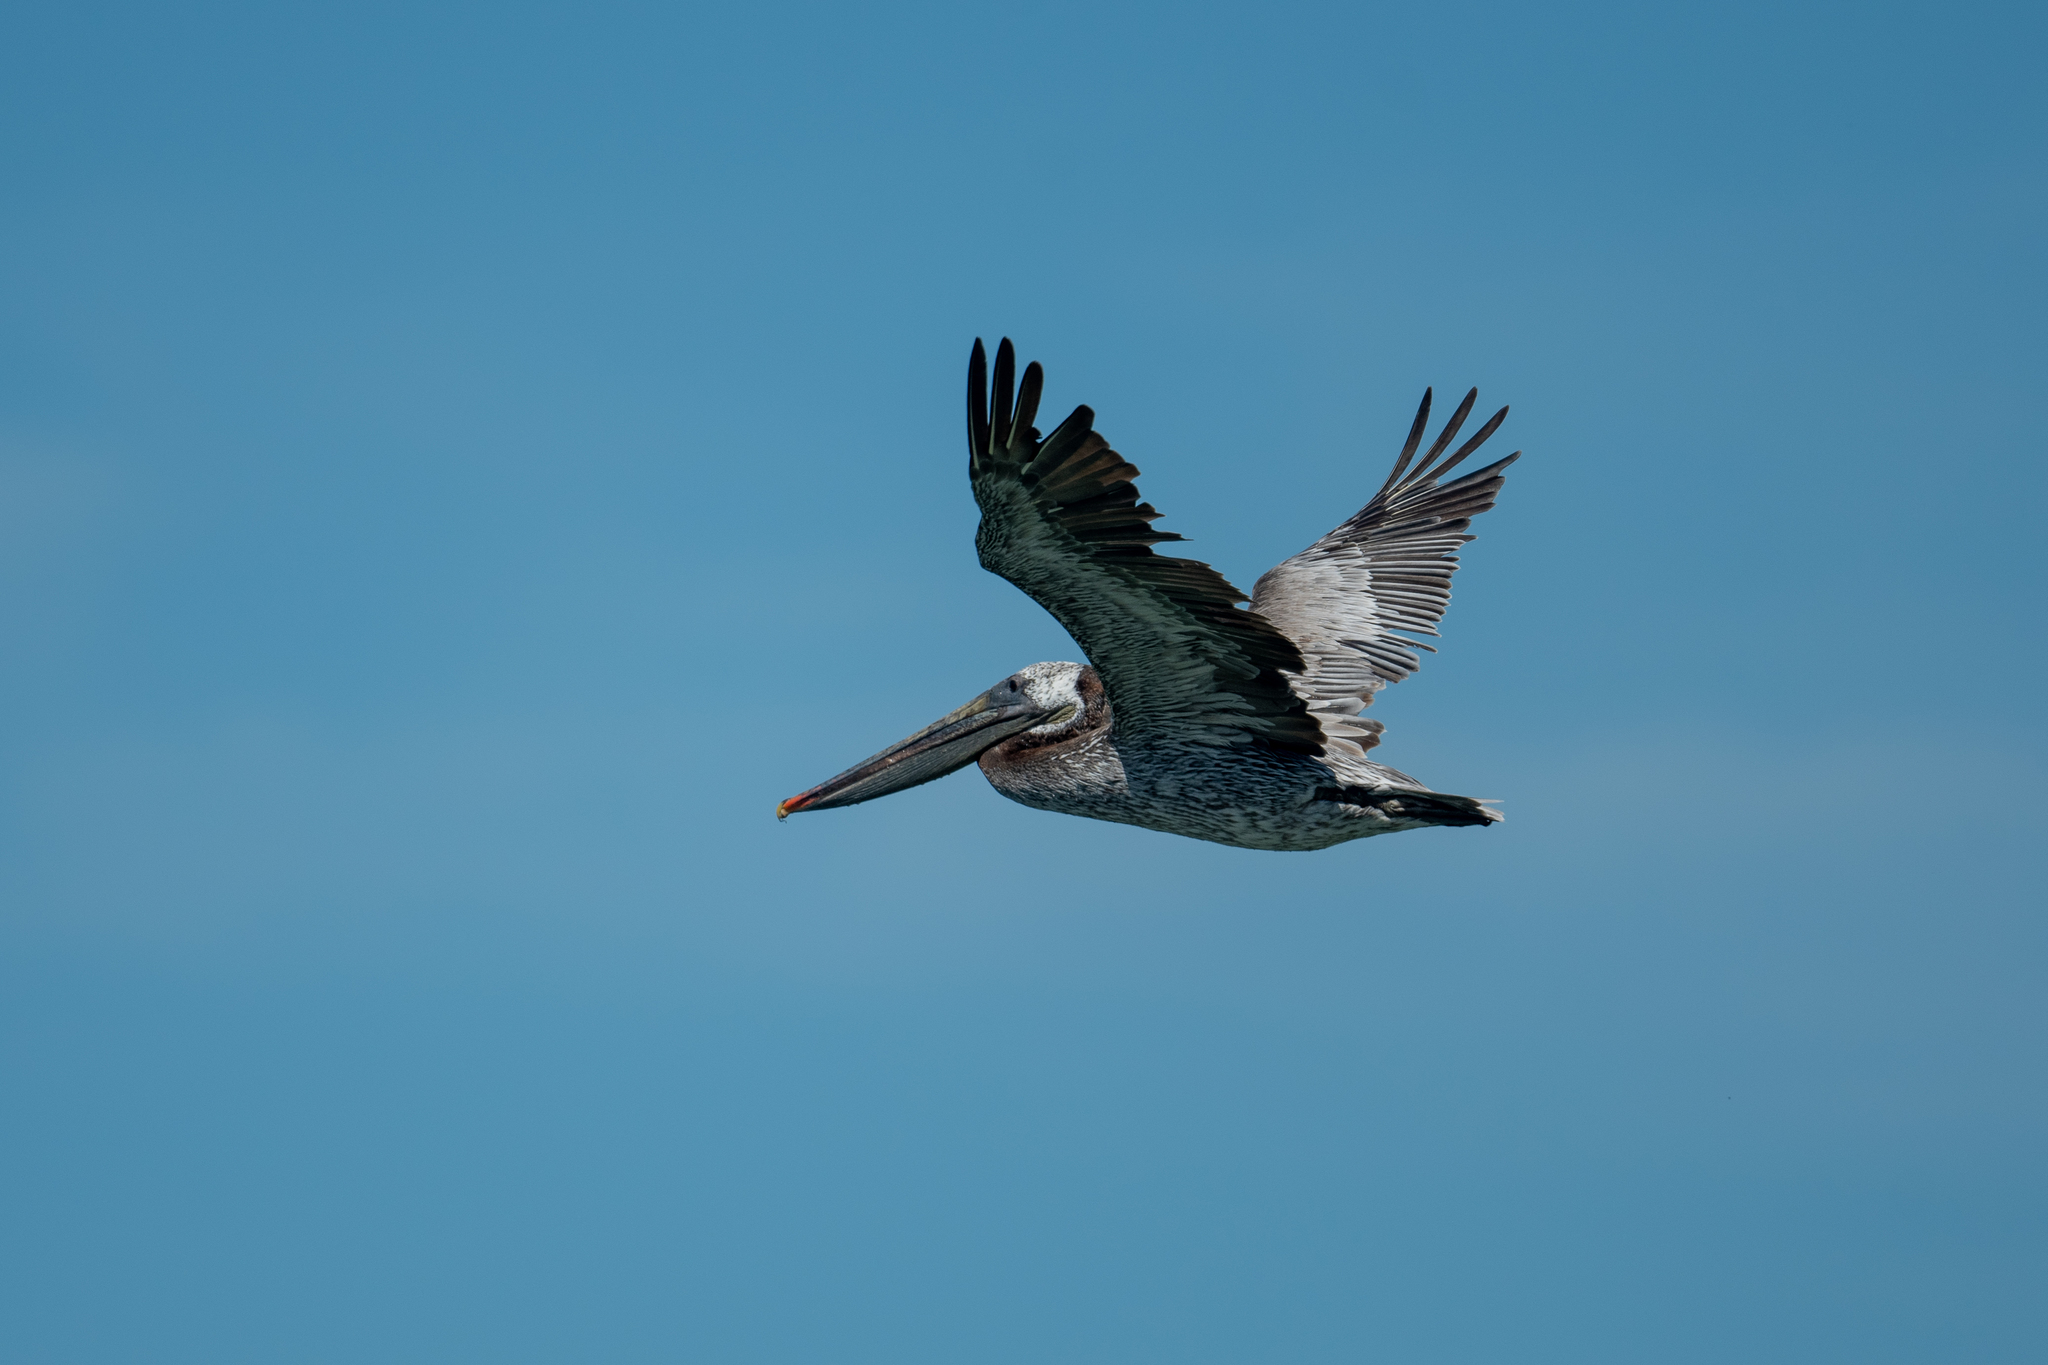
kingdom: Animalia
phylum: Chordata
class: Aves
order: Pelecaniformes
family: Pelecanidae
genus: Pelecanus
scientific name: Pelecanus occidentalis
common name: Brown pelican
